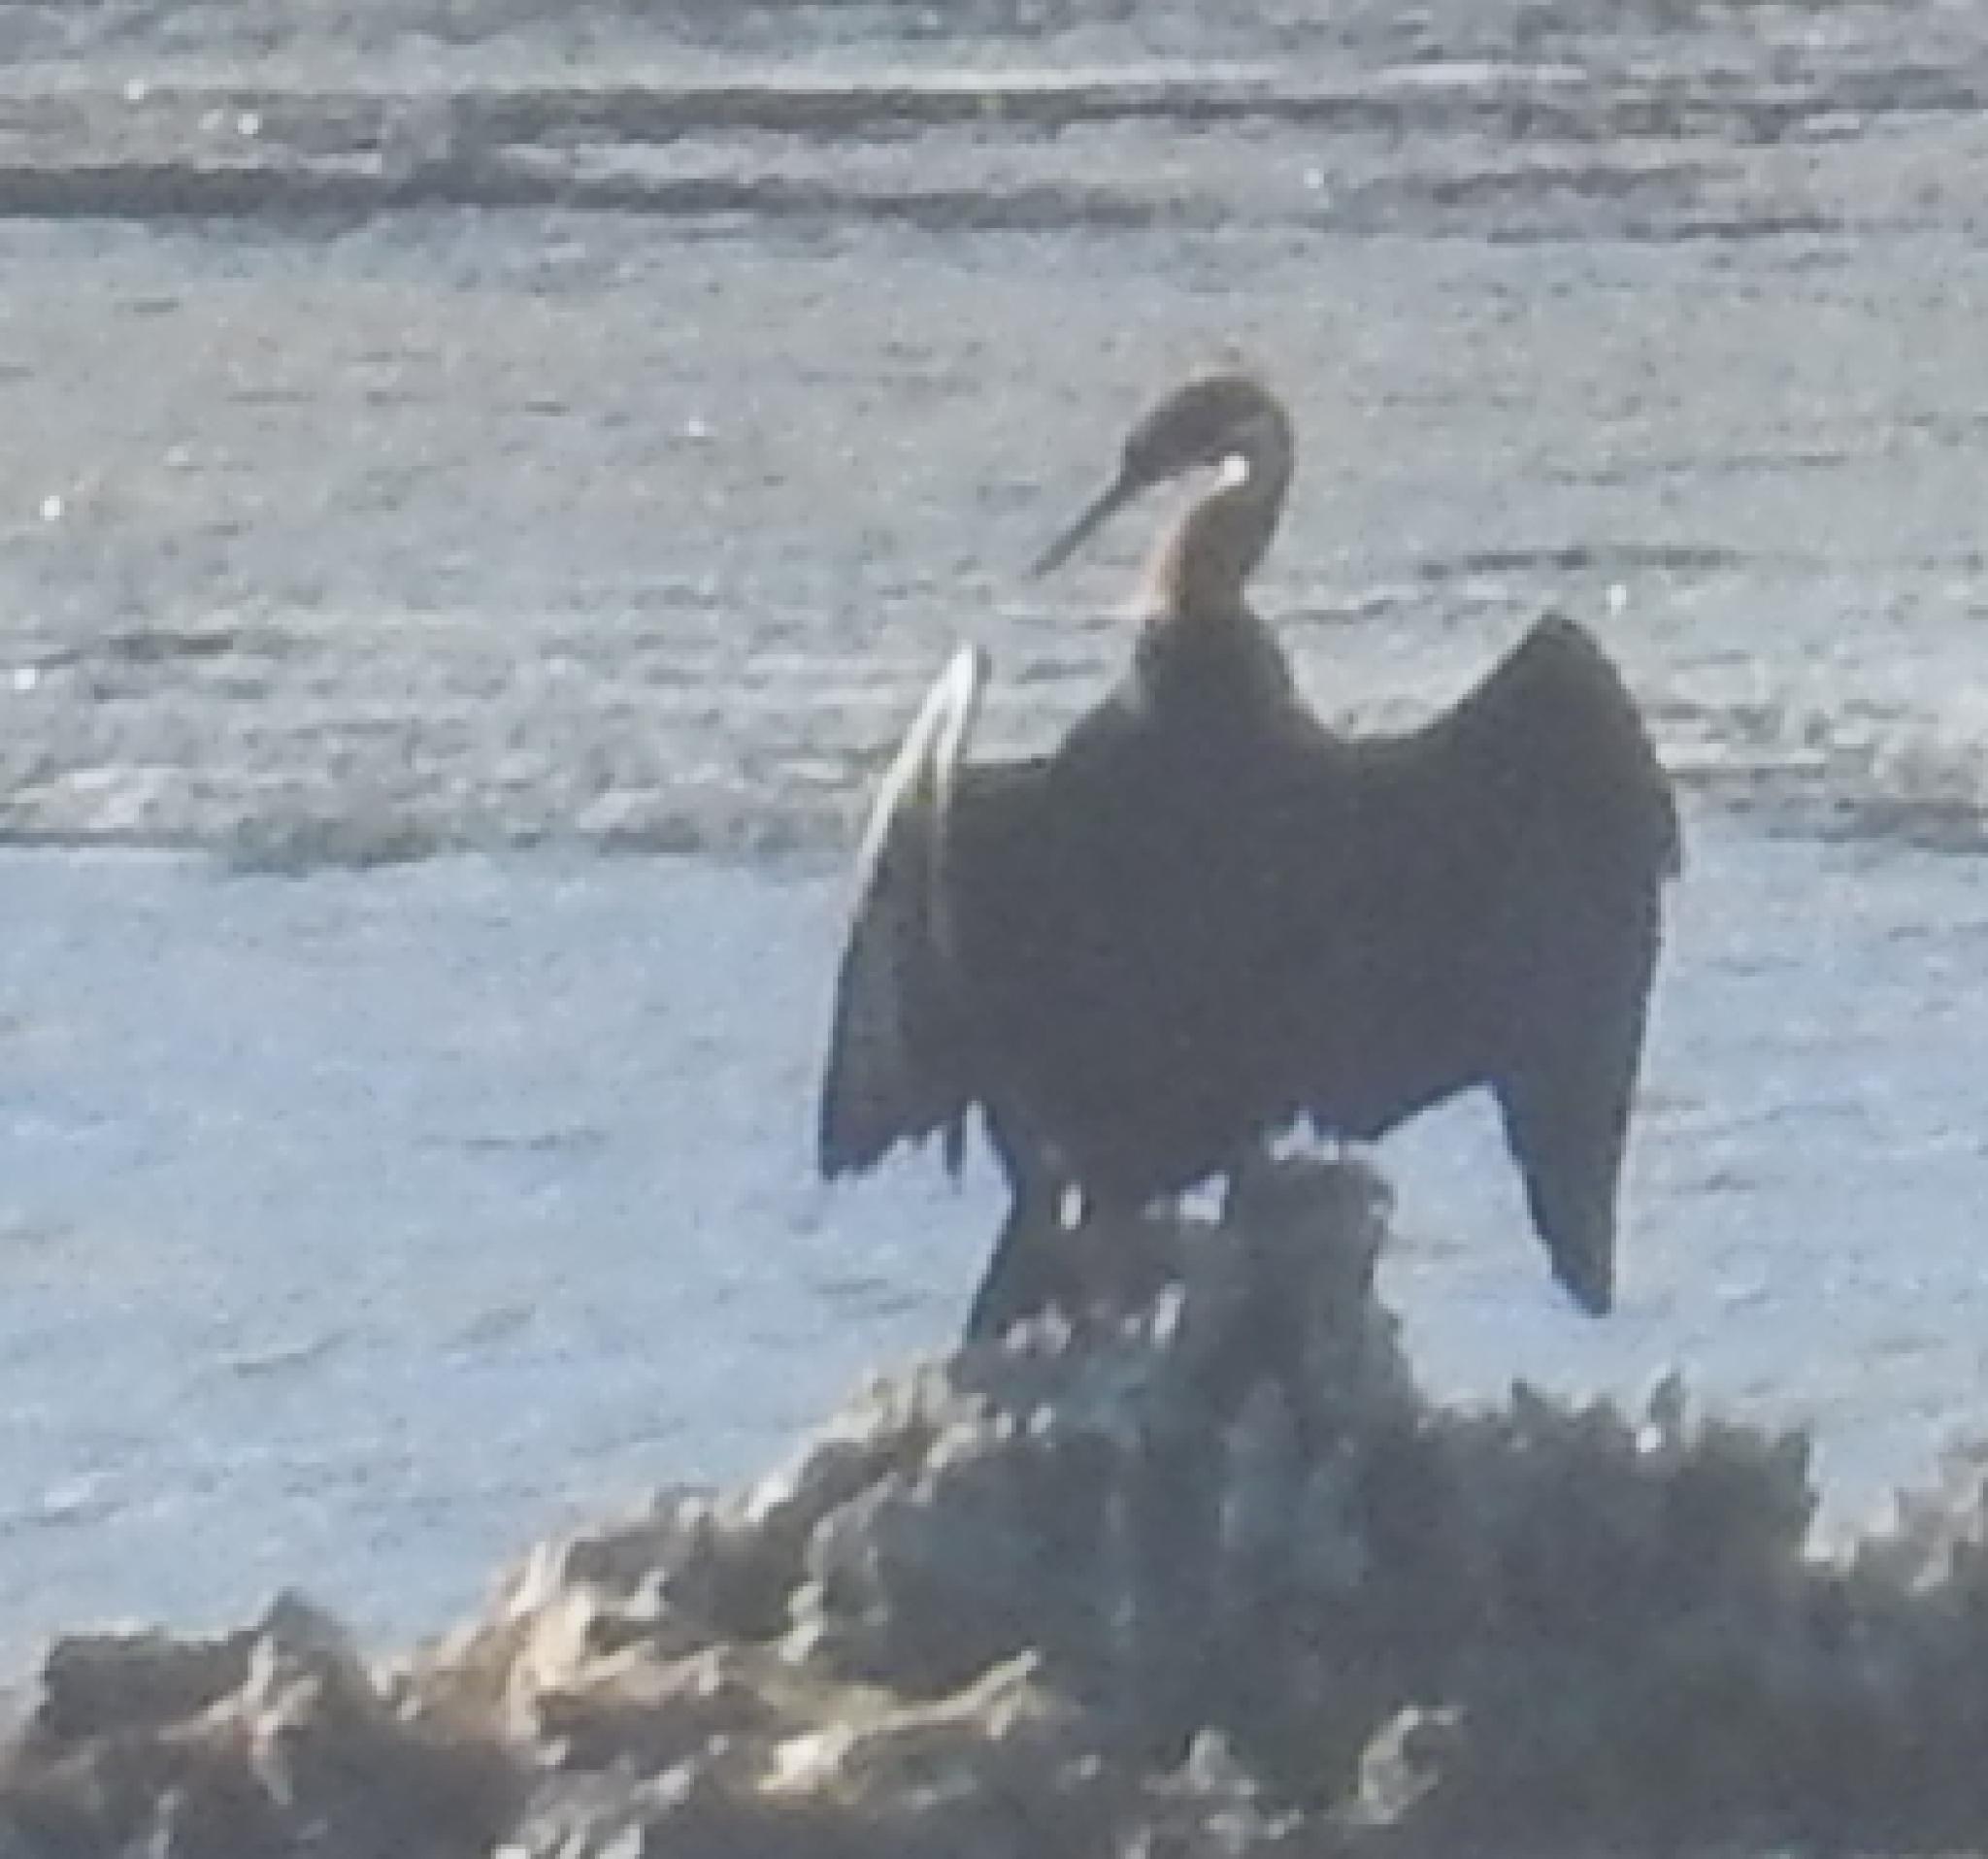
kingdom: Animalia
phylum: Chordata
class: Aves
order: Suliformes
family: Anhingidae
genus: Anhinga
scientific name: Anhinga rufa
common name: African darter
